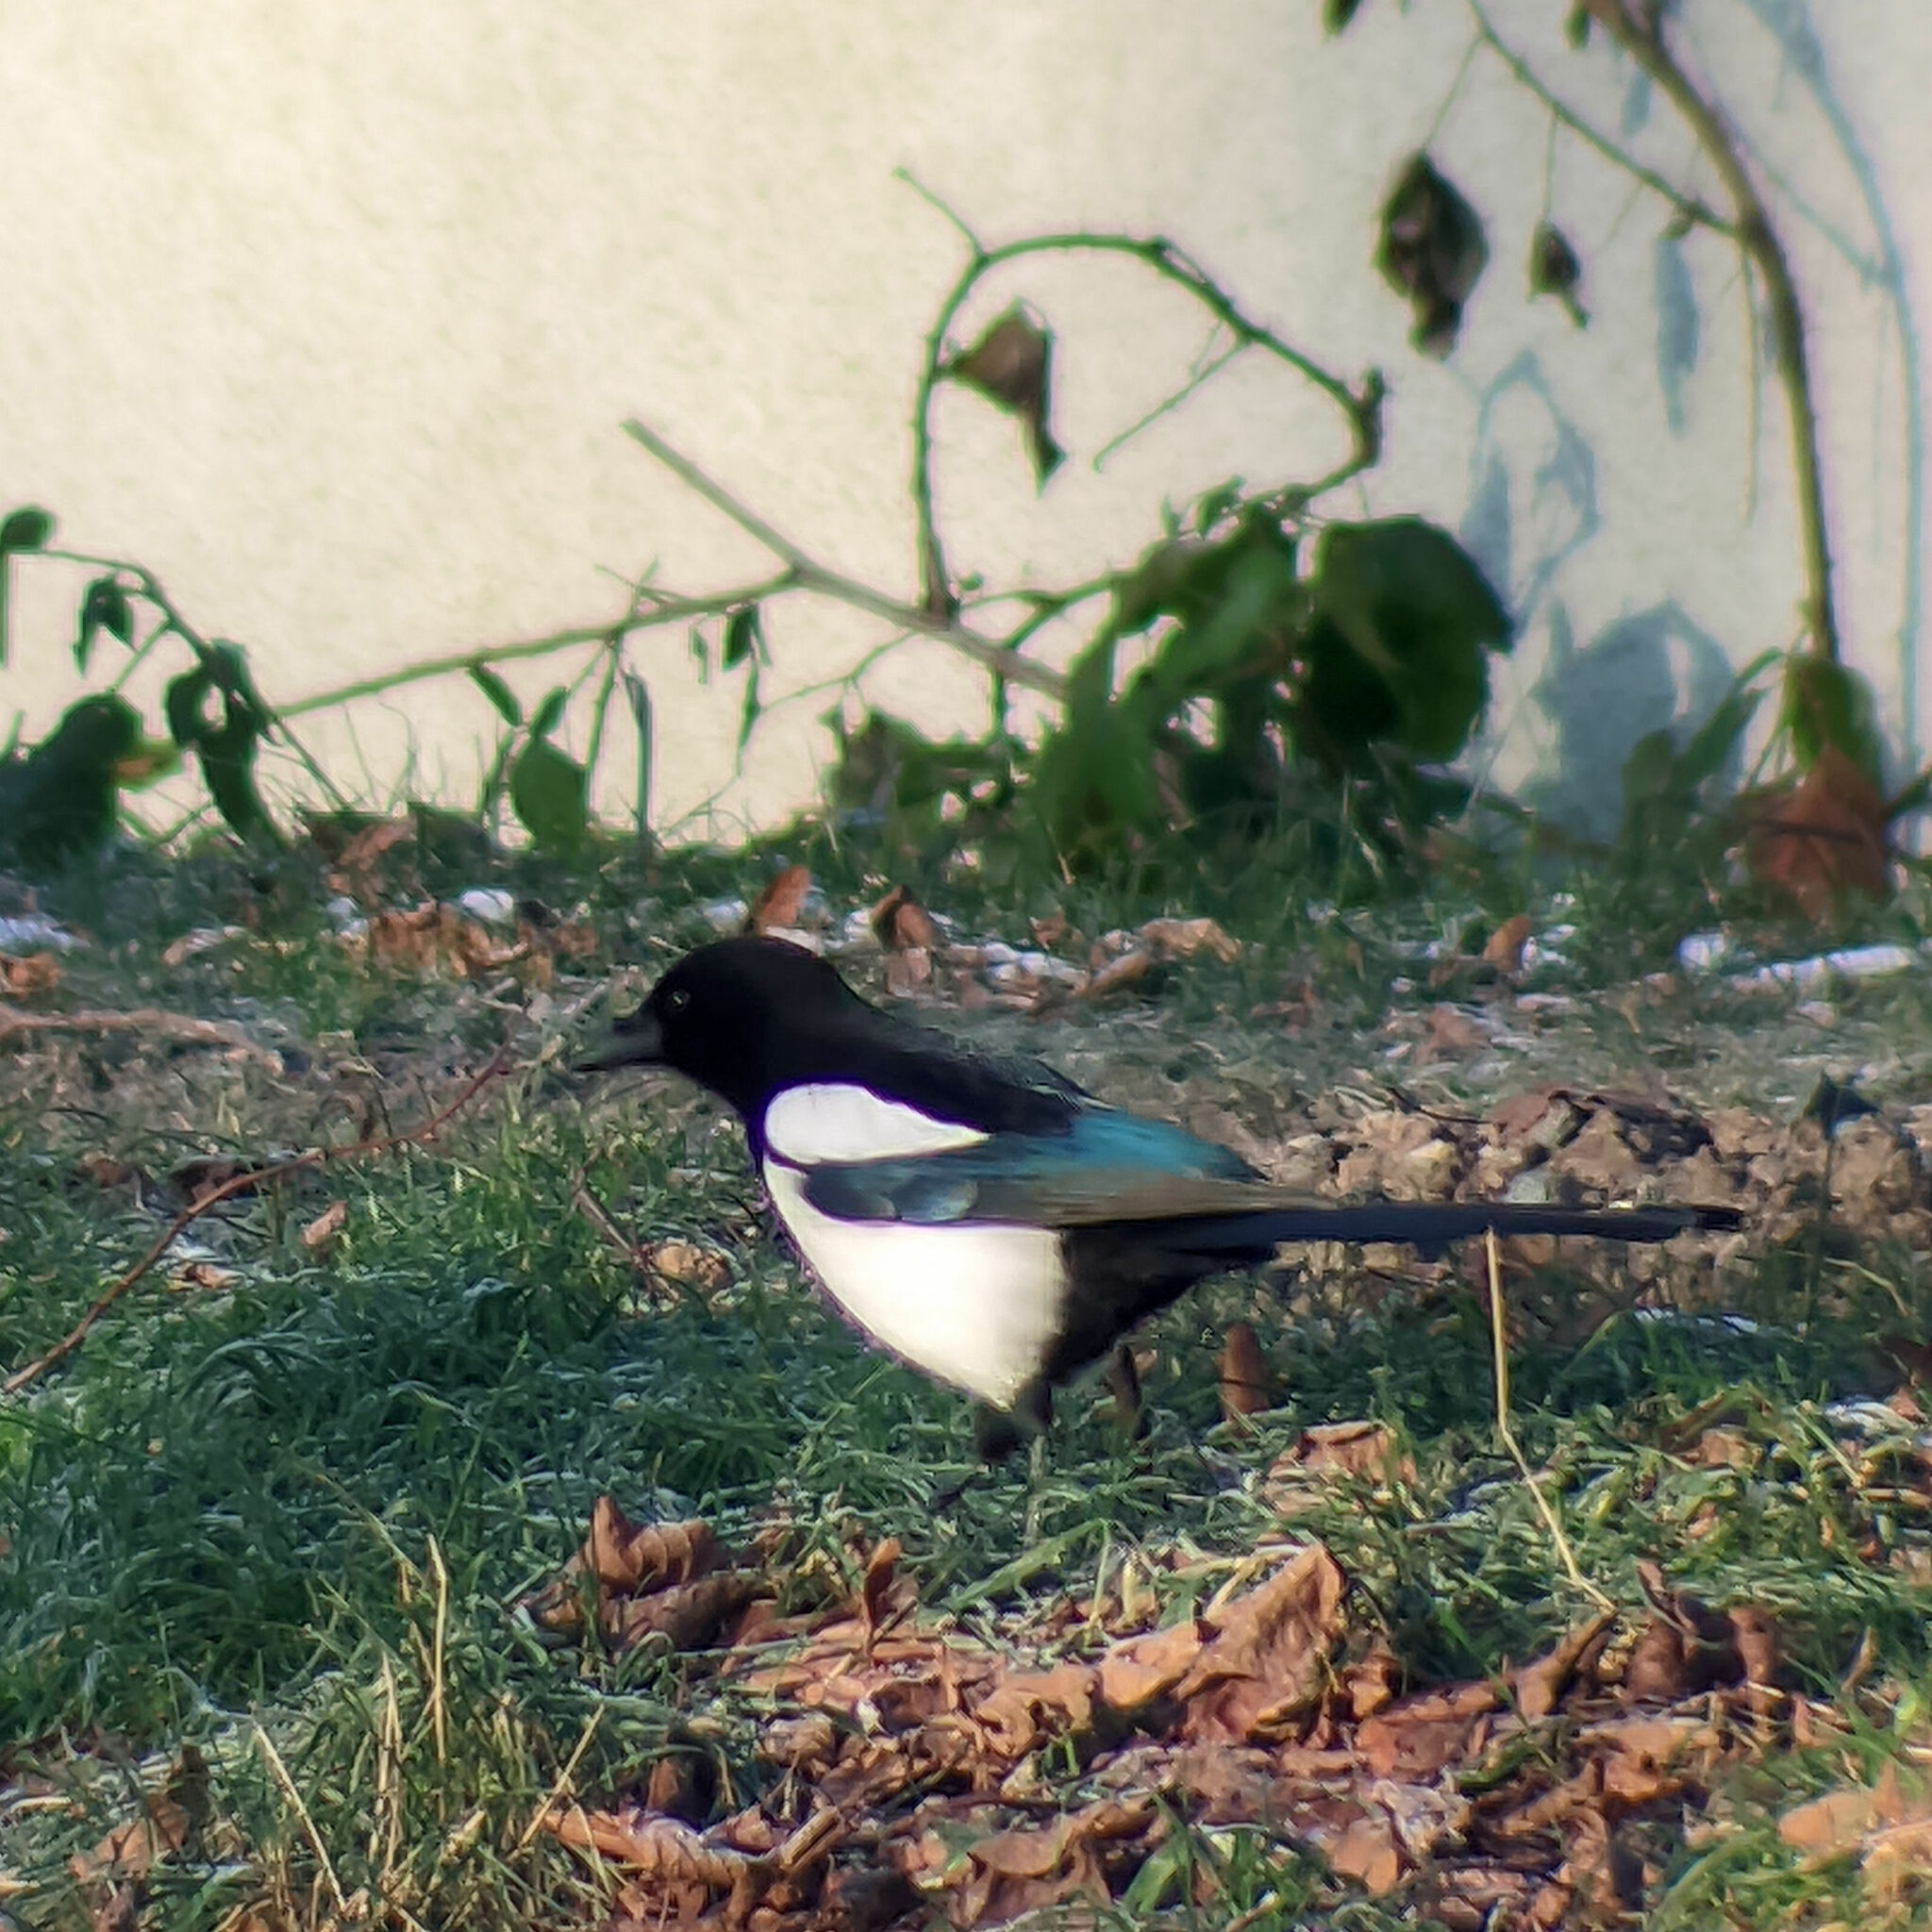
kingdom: Animalia
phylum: Chordata
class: Aves
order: Passeriformes
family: Corvidae
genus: Pica
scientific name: Pica pica
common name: Eurasian magpie
